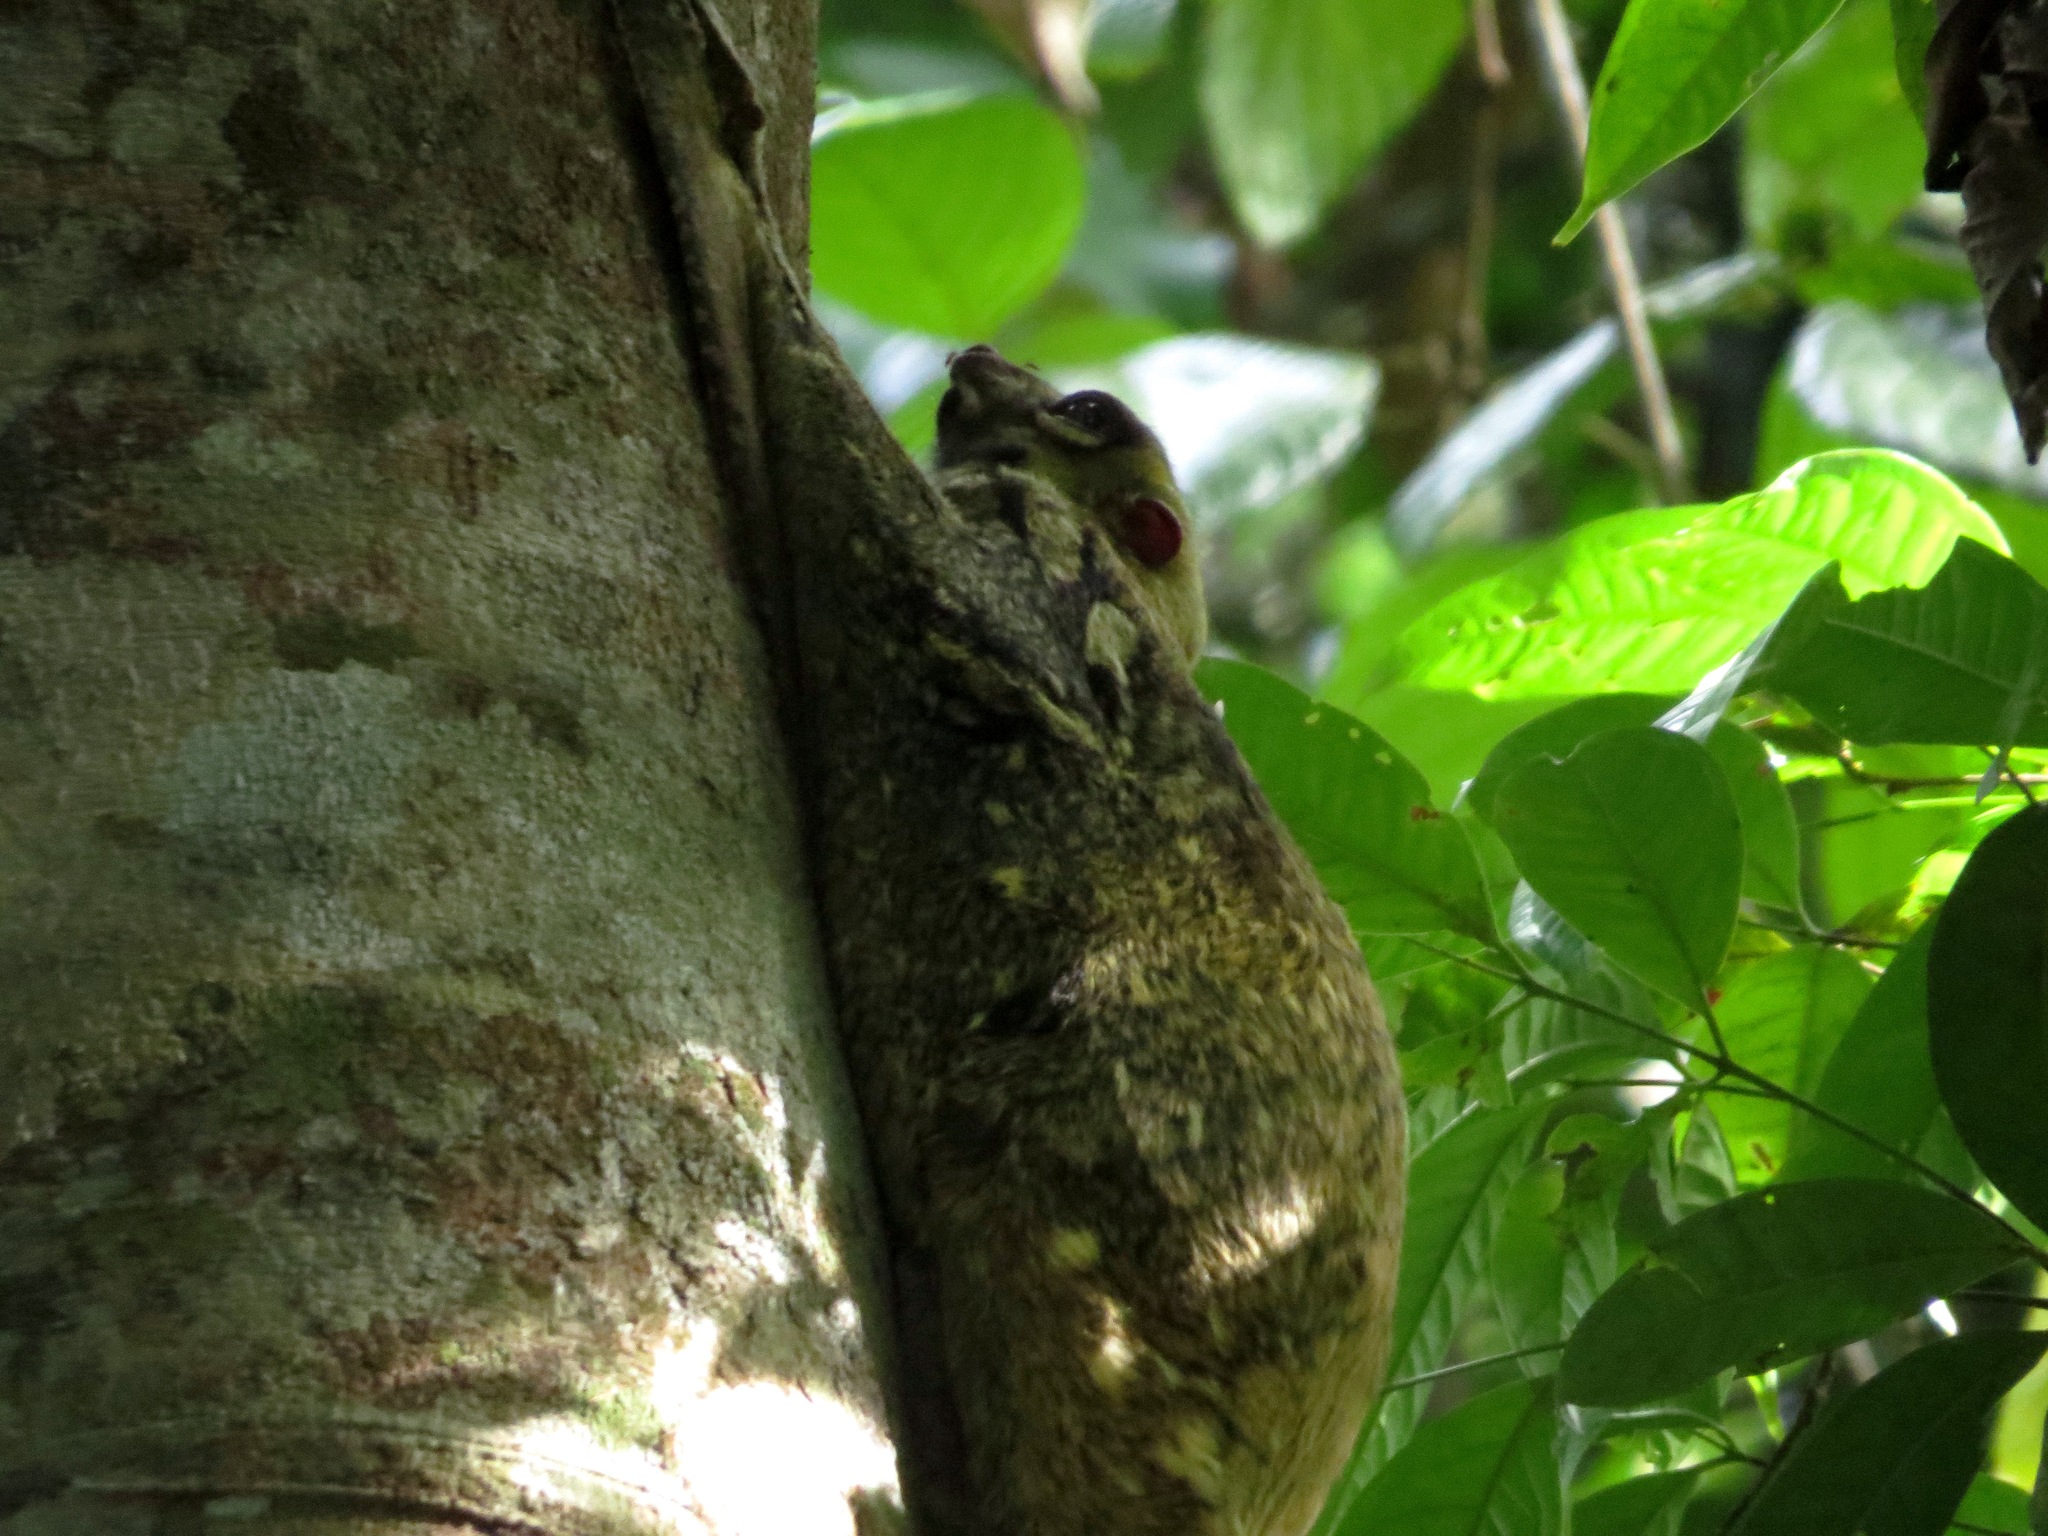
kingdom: Animalia
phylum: Chordata
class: Mammalia
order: Dermoptera
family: Cynocephalidae
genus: Galeopterus
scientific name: Galeopterus variegatus
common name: Sunda flying lemur
